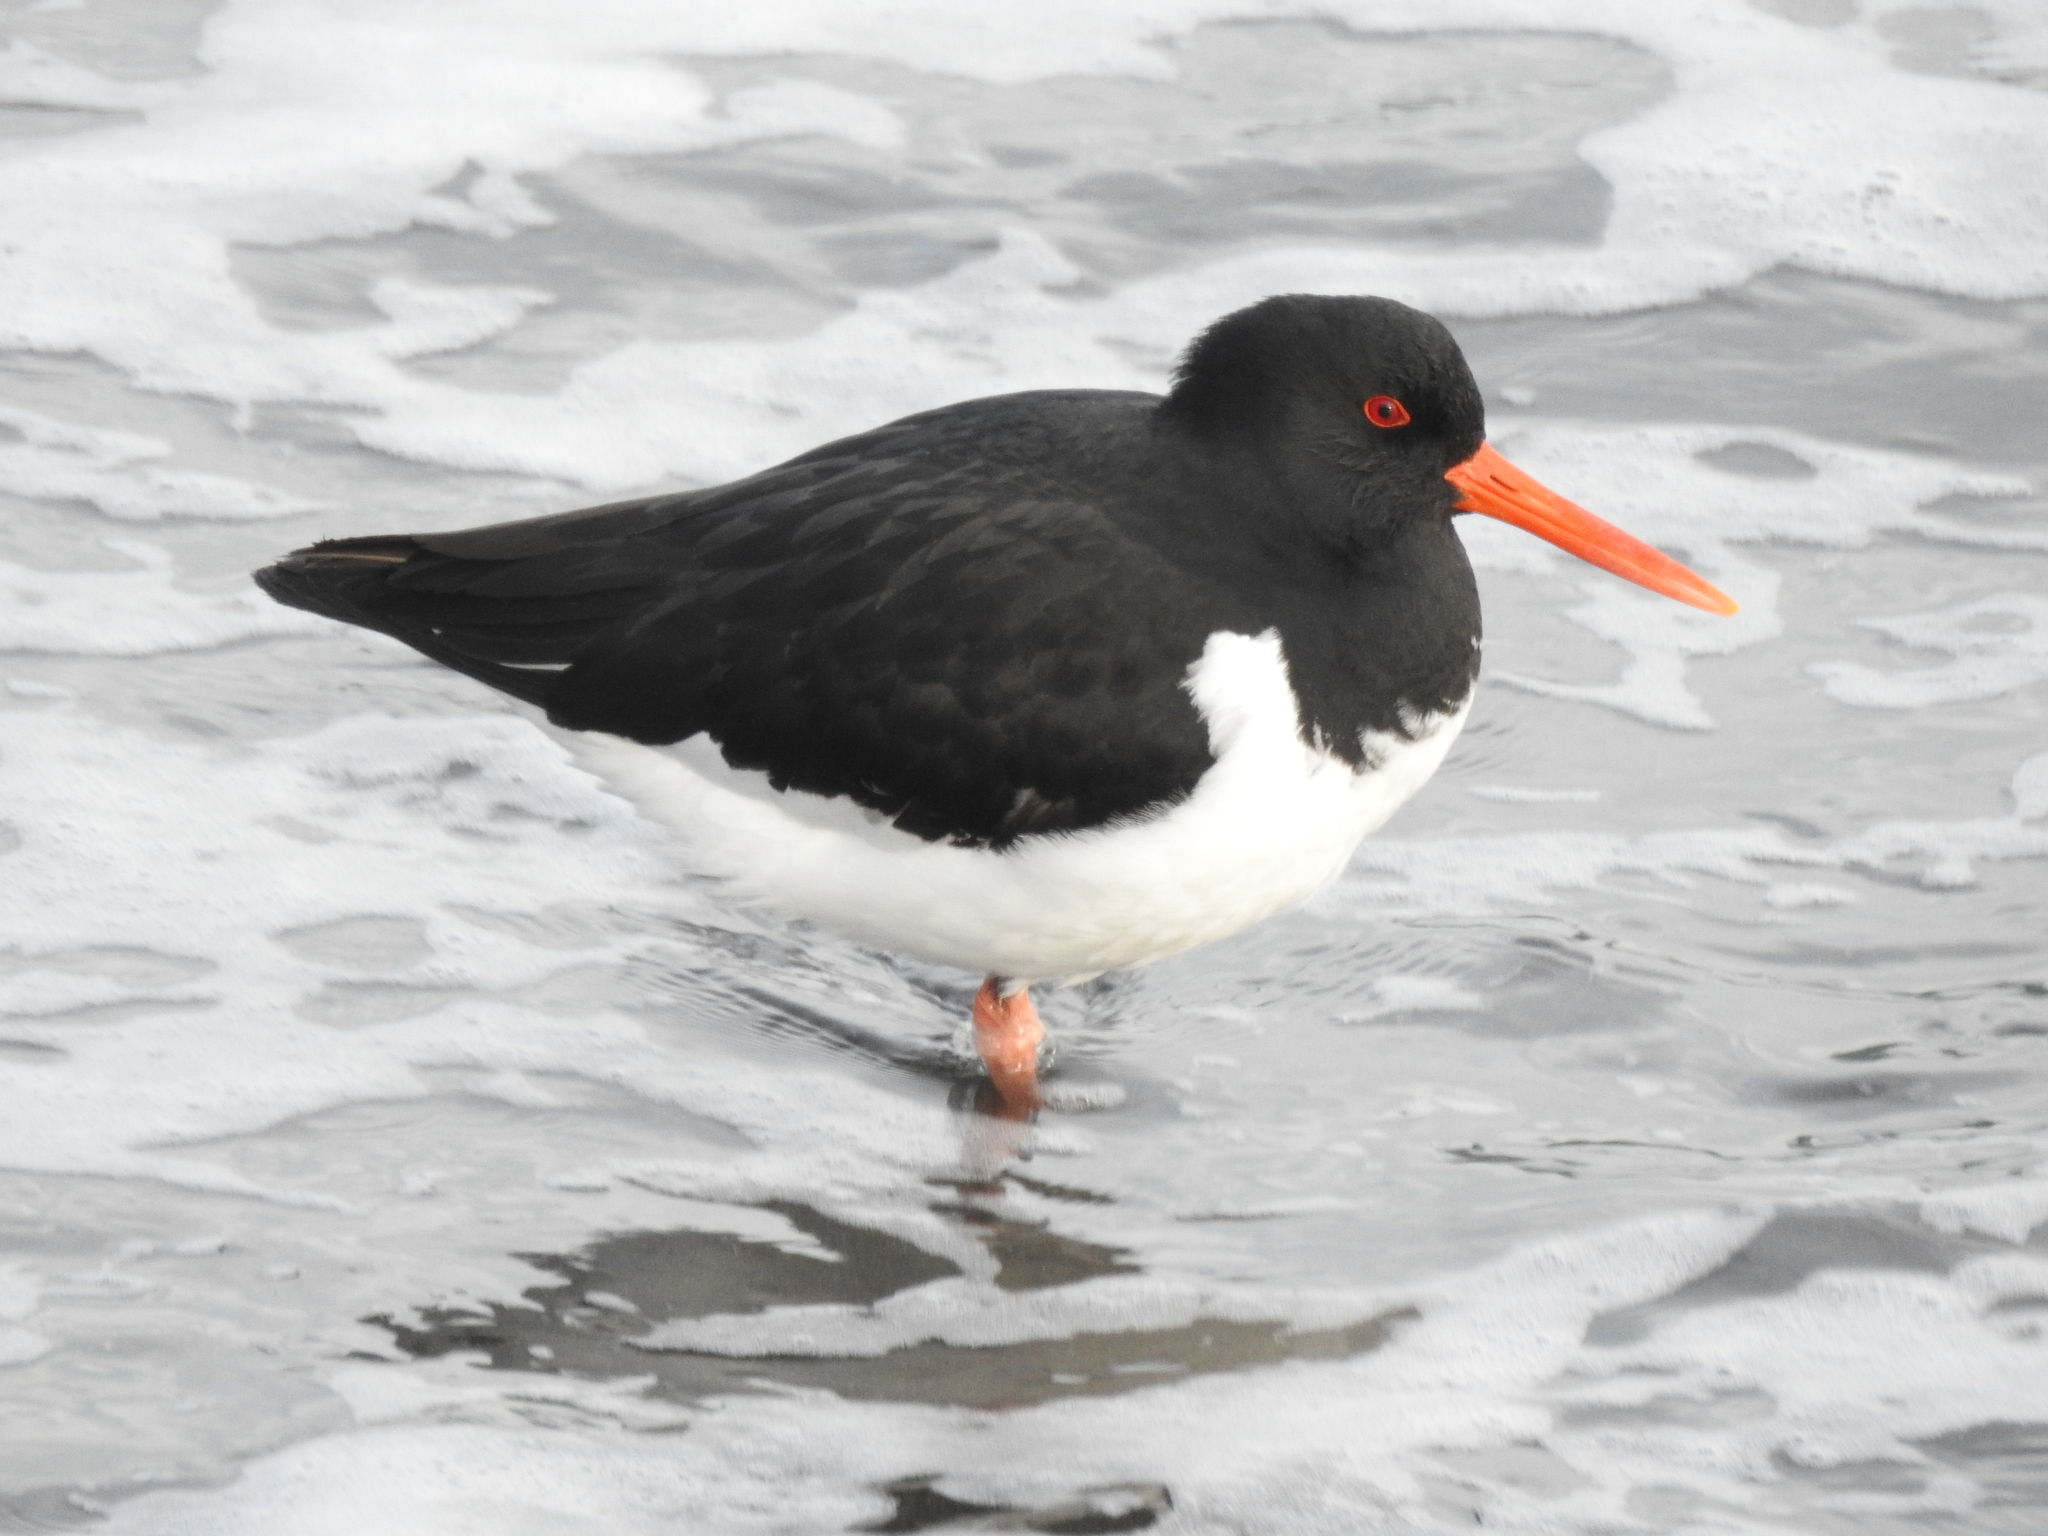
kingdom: Animalia
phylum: Chordata
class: Aves
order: Charadriiformes
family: Haematopodidae
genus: Haematopus
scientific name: Haematopus ostralegus
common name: Eurasian oystercatcher
